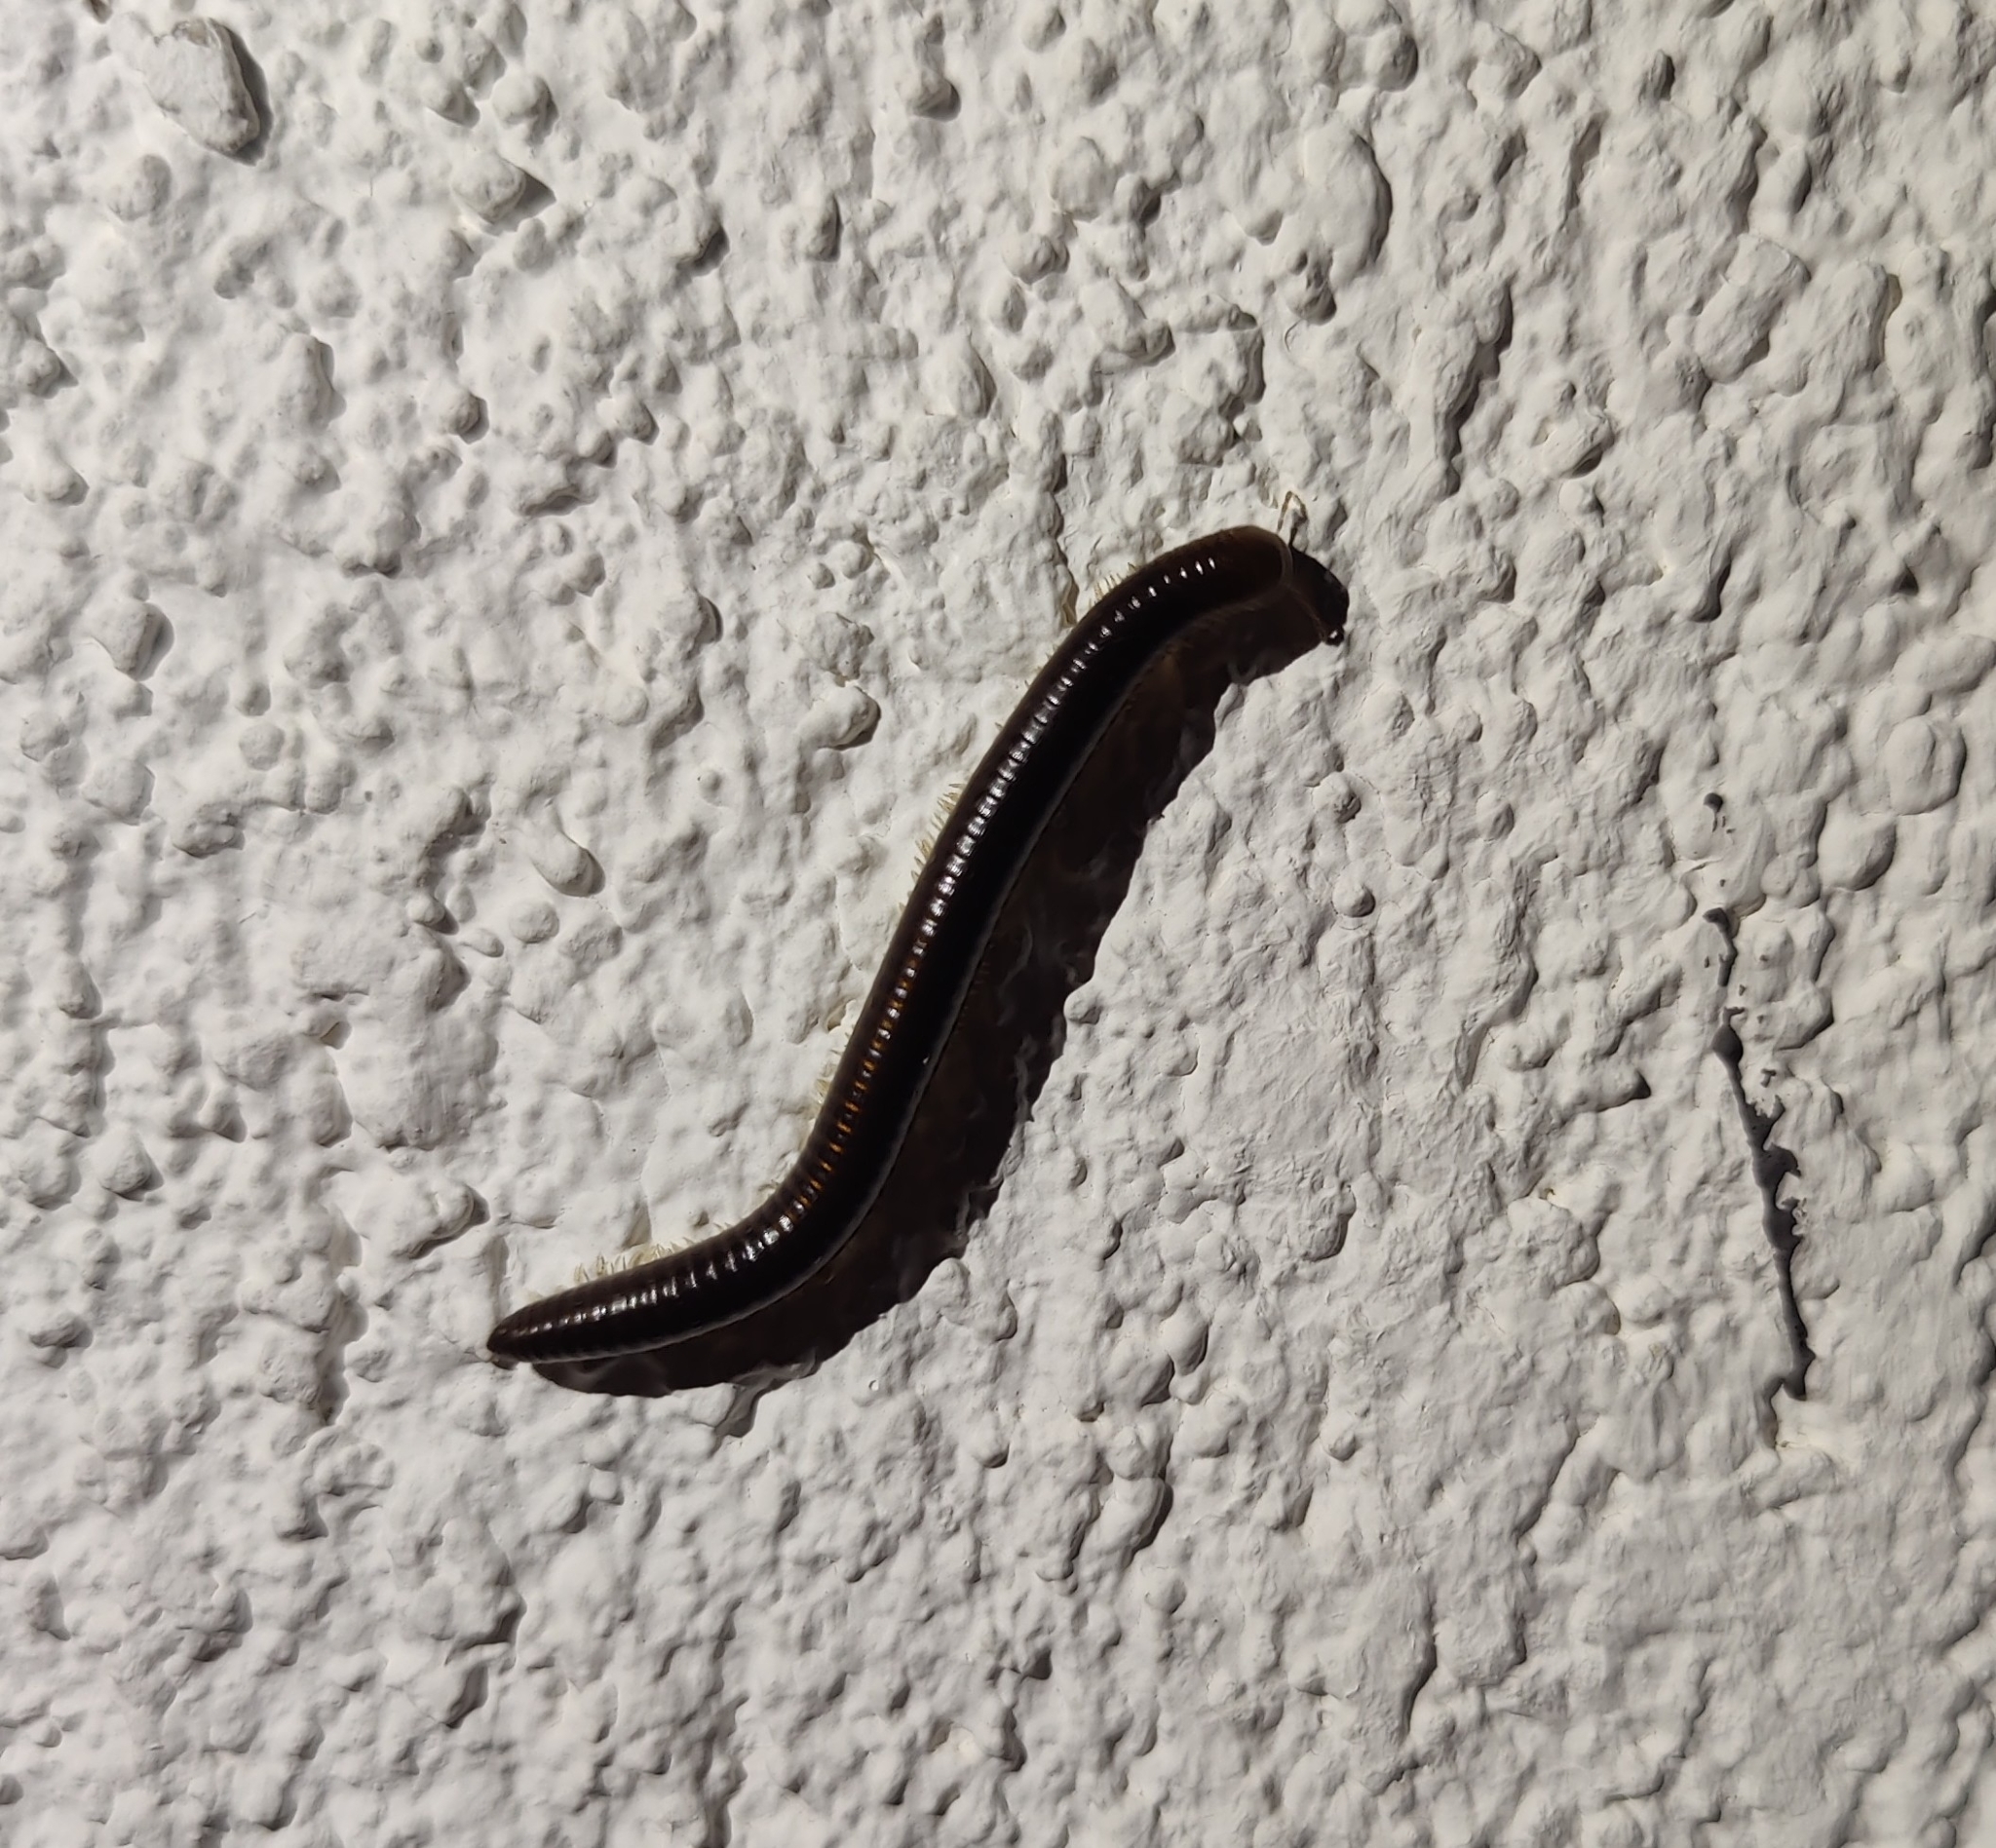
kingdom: Animalia
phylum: Arthropoda
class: Diplopoda
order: Julida
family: Julidae
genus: Pachyiulus
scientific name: Pachyiulus flavipes
